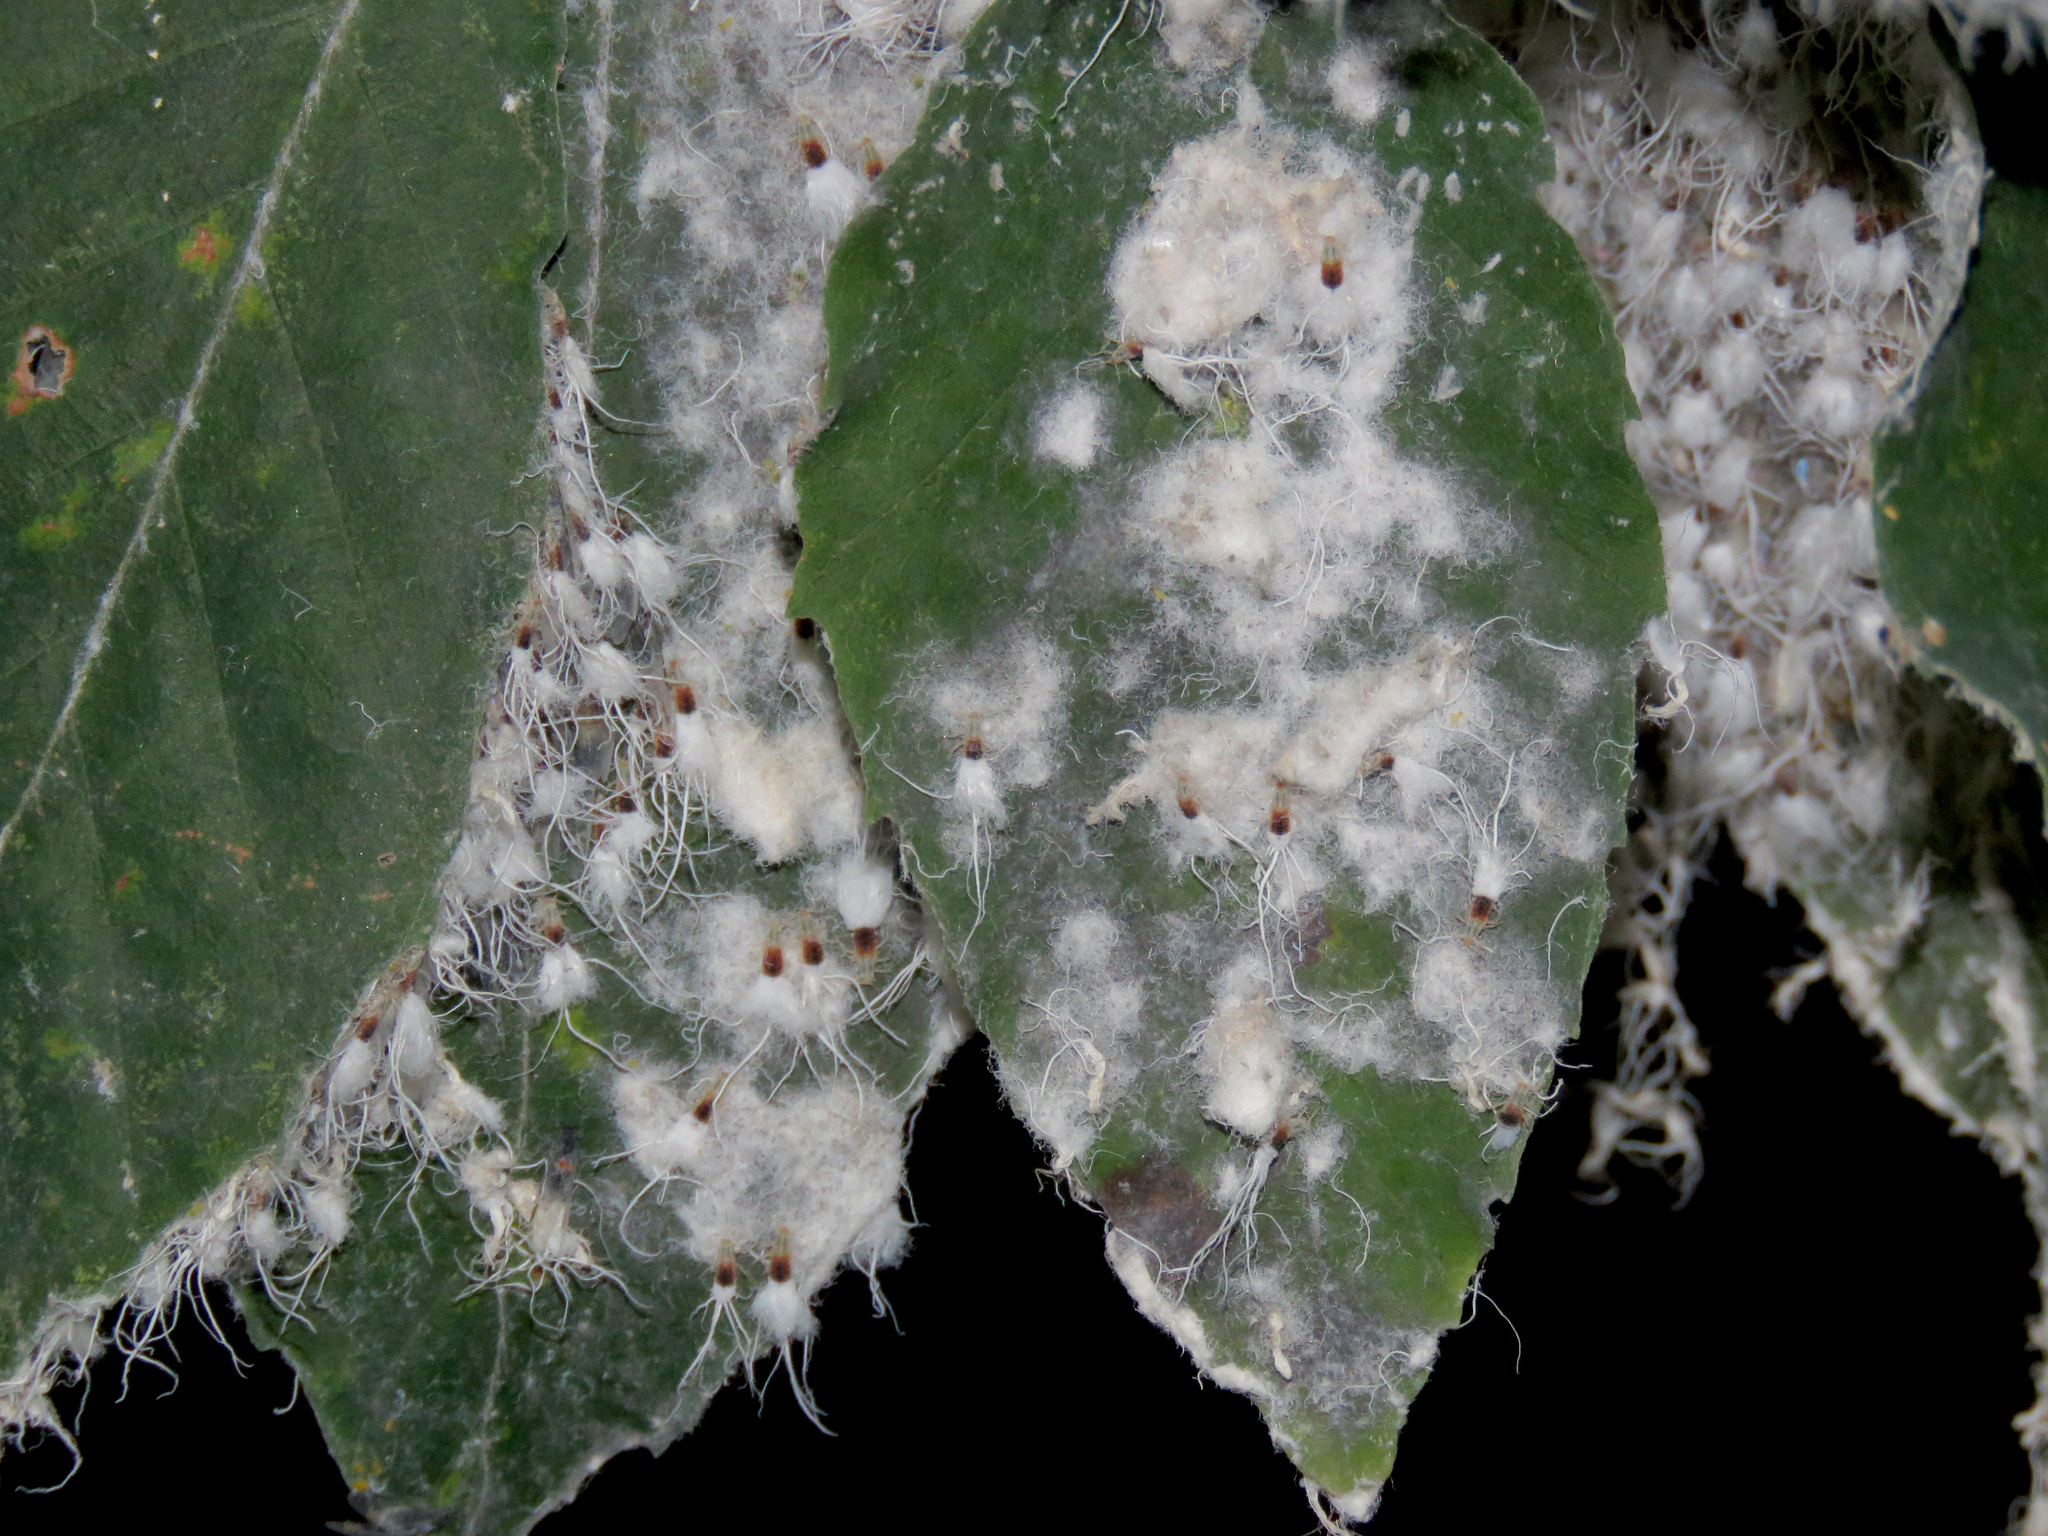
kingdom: Animalia
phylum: Arthropoda
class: Insecta
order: Hemiptera
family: Aphididae
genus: Grylloprociphilus
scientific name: Grylloprociphilus imbricator
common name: Beech blight aphid
